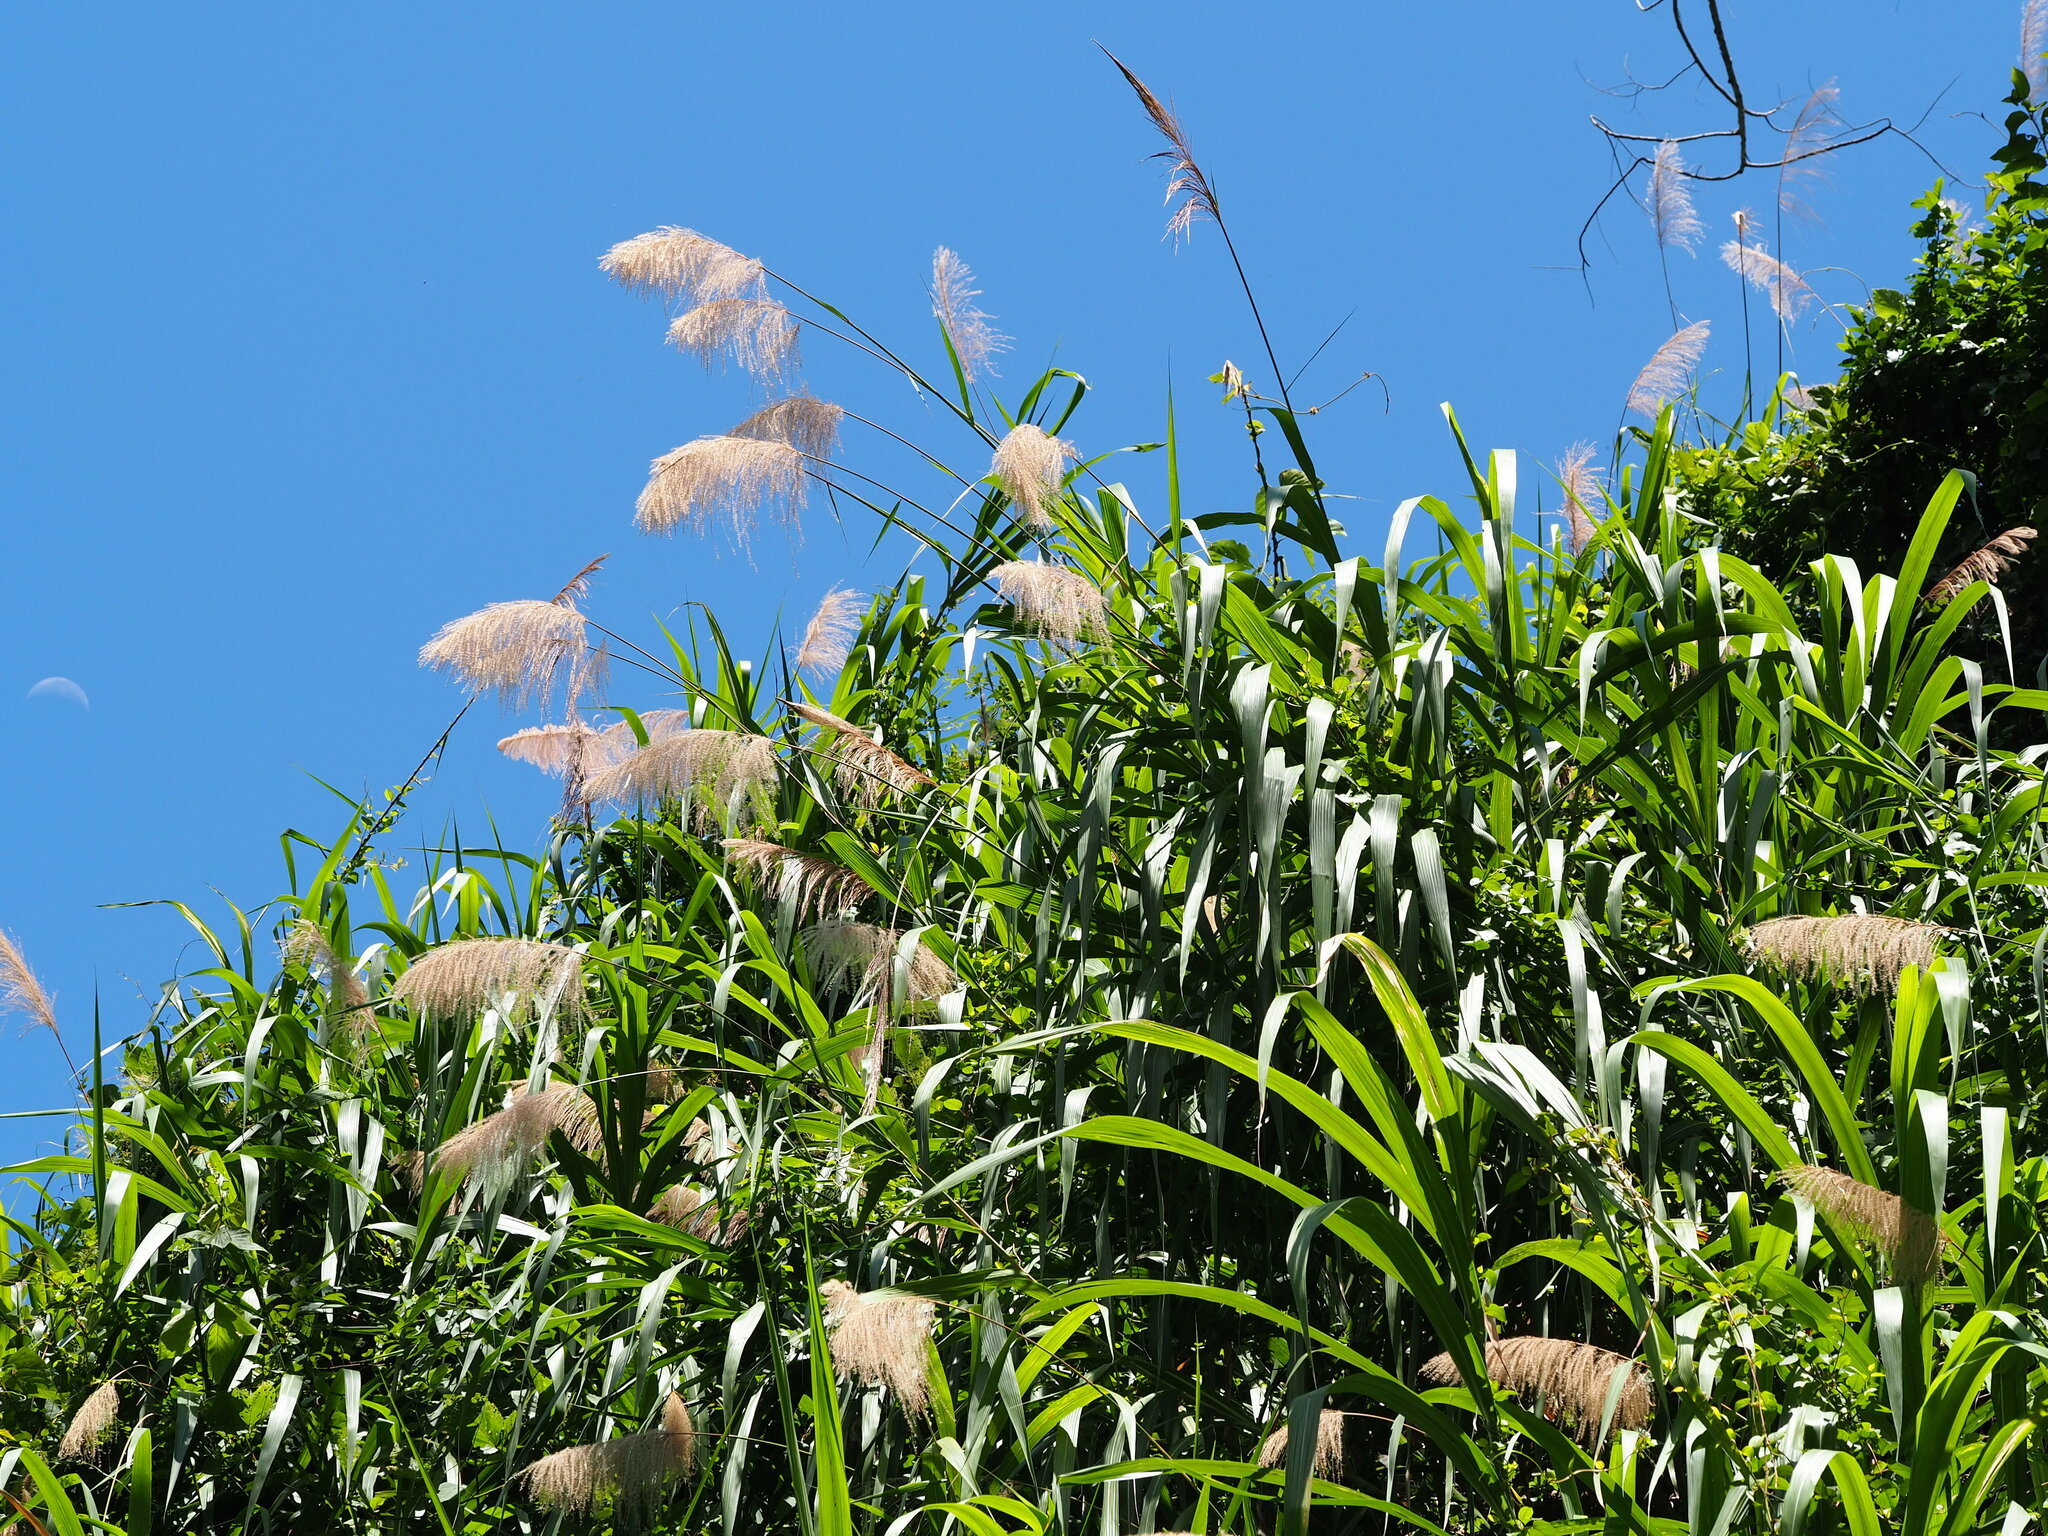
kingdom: Plantae
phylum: Tracheophyta
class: Liliopsida
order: Poales
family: Poaceae
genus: Miscanthus
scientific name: Miscanthus floridulus
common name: Pacific island silvergrass
